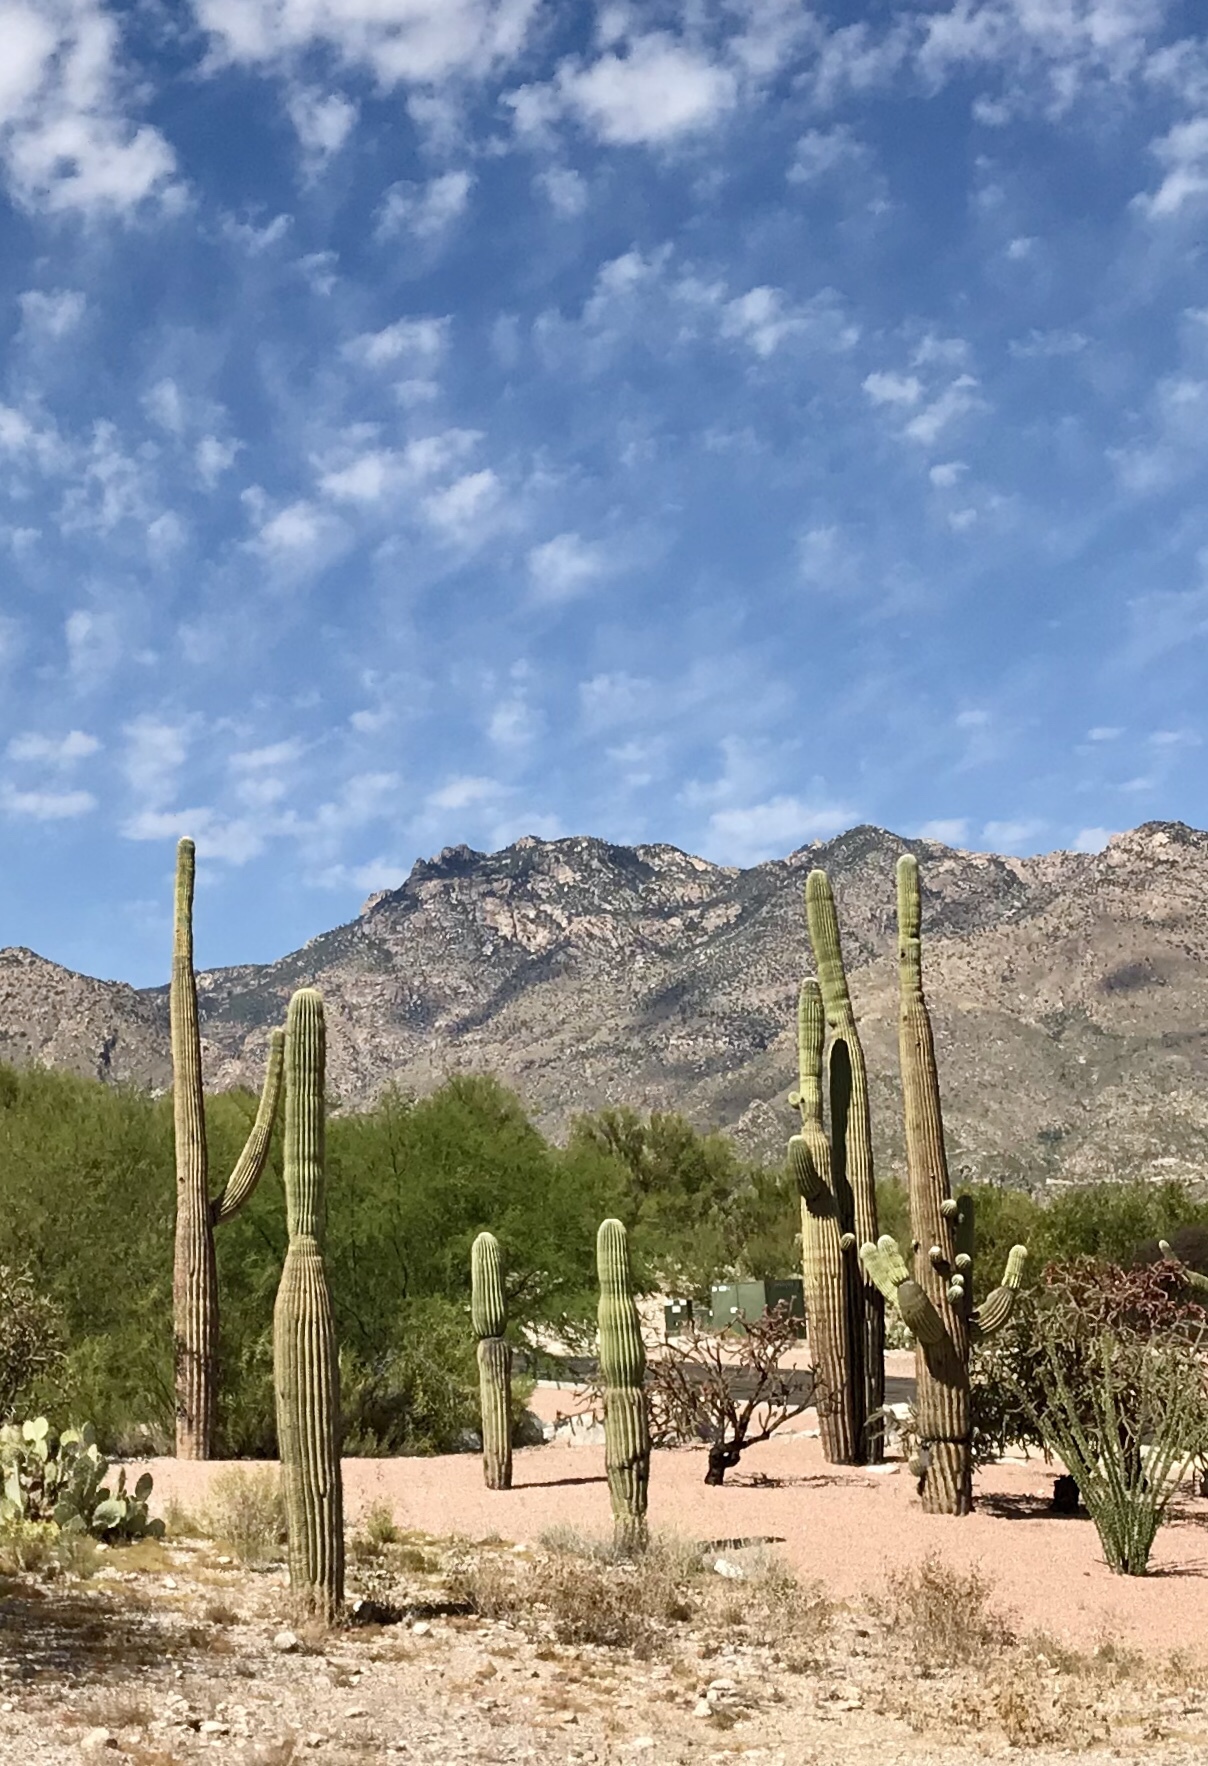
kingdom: Plantae
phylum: Tracheophyta
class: Magnoliopsida
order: Caryophyllales
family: Cactaceae
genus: Carnegiea
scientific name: Carnegiea gigantea
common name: Saguaro
